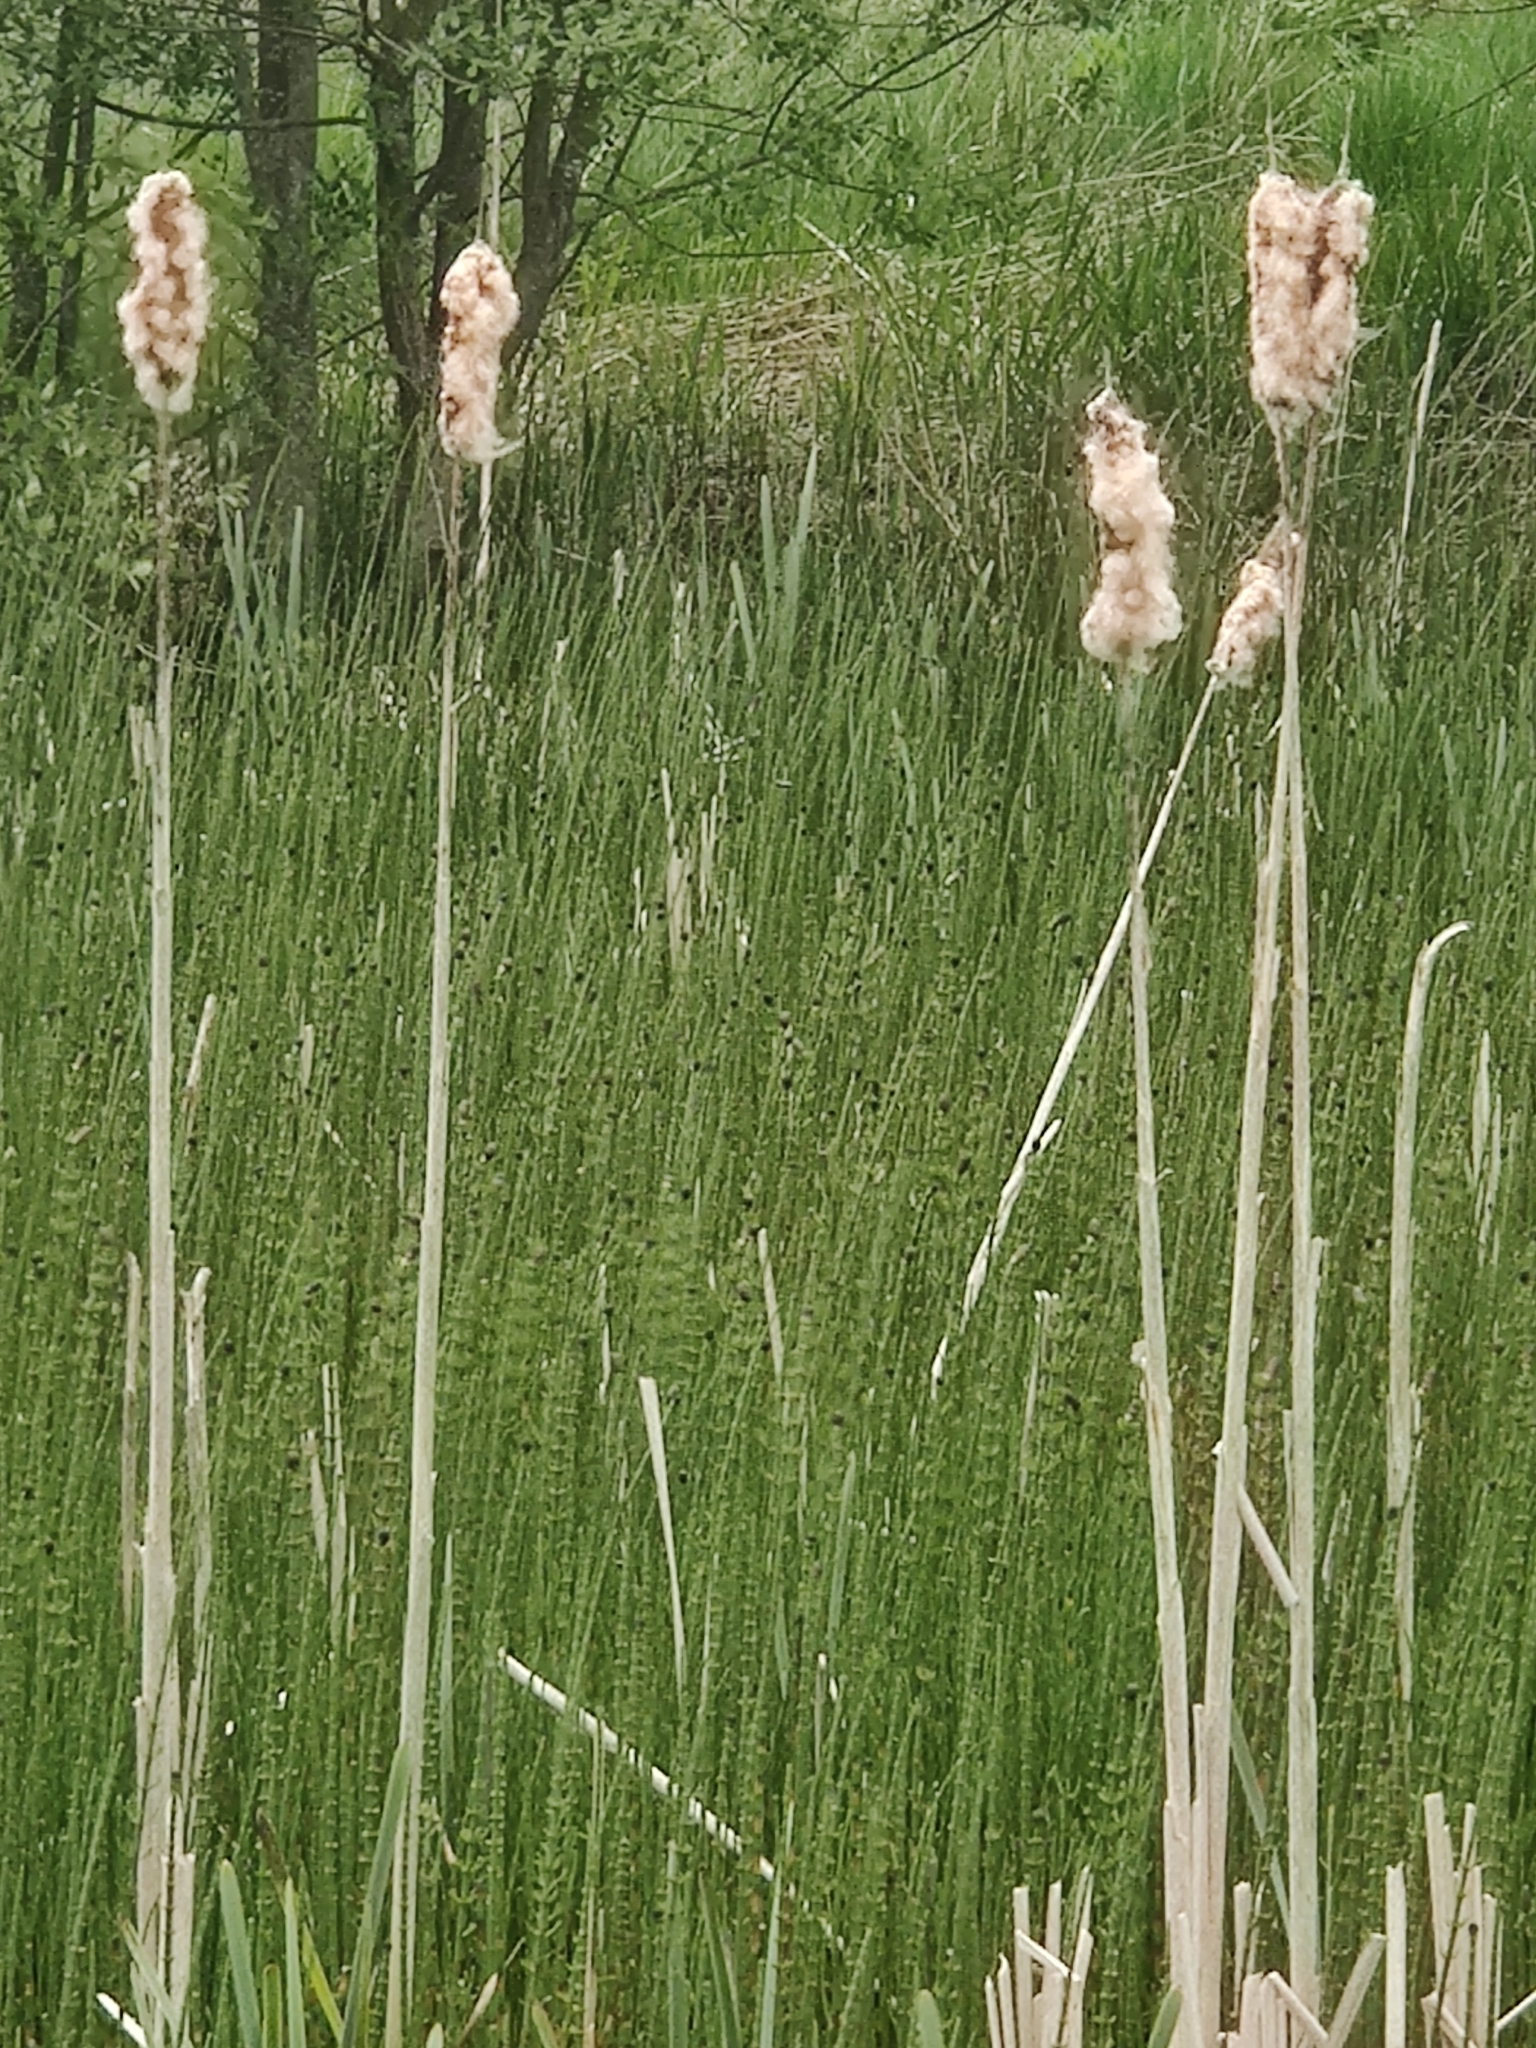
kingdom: Plantae
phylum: Tracheophyta
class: Liliopsida
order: Poales
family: Typhaceae
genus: Typha
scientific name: Typha latifolia
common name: Broadleaf cattail
